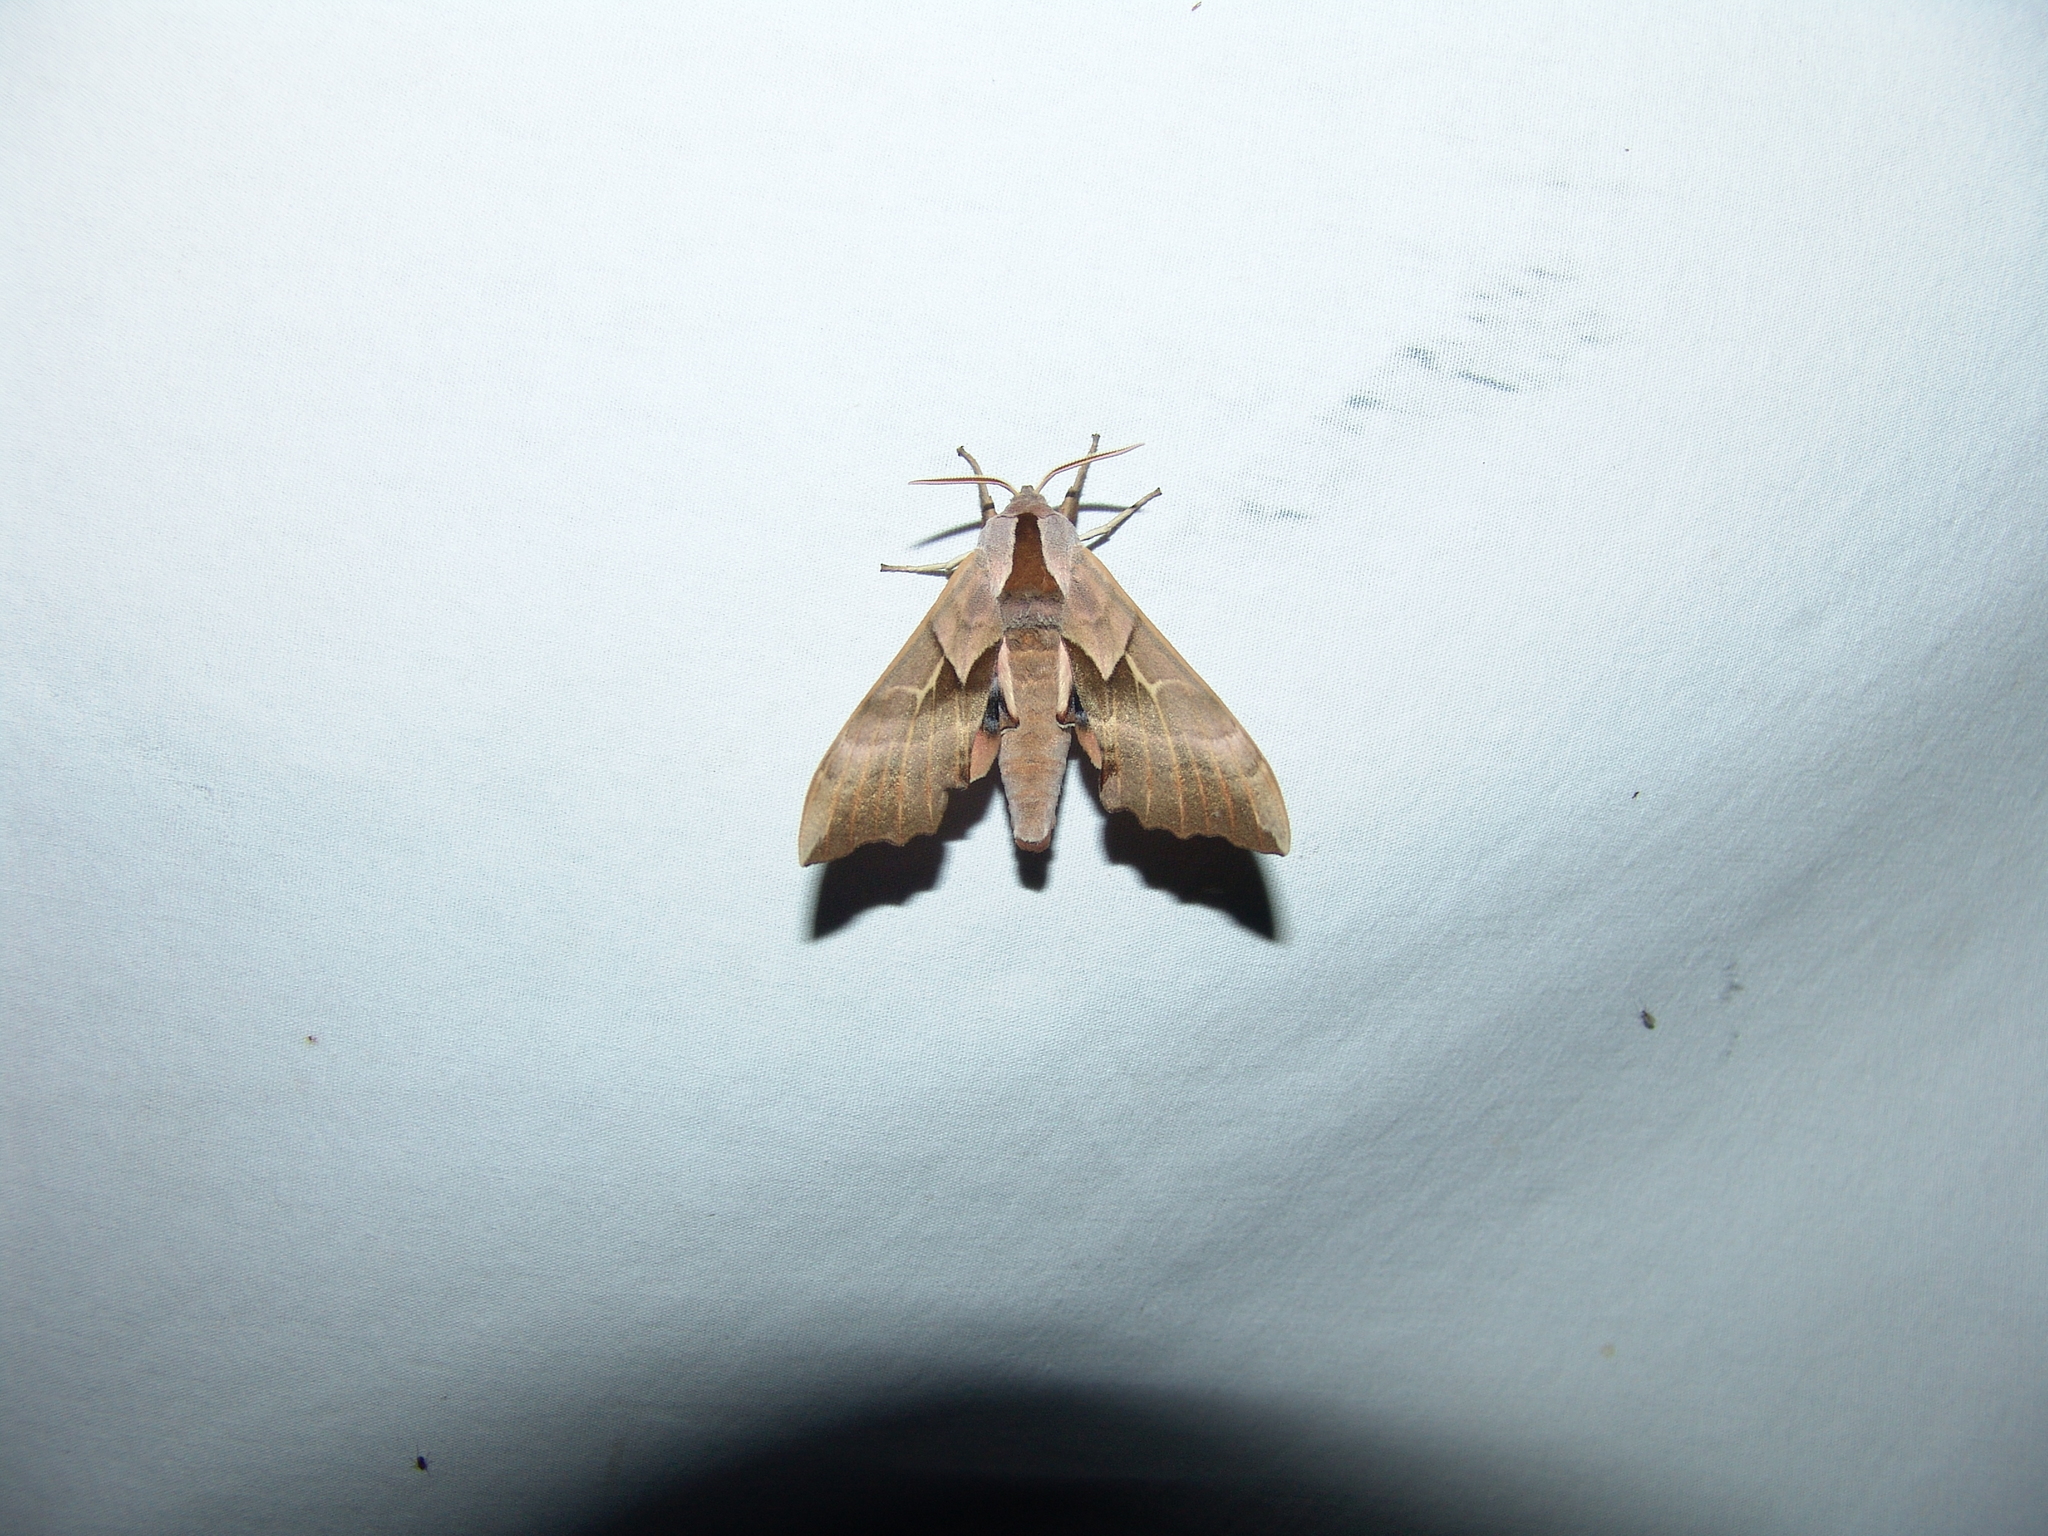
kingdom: Animalia
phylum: Arthropoda
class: Insecta
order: Lepidoptera
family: Sphingidae
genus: Smerinthus
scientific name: Smerinthus cerisyi
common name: Cerisy's sphinx moth
